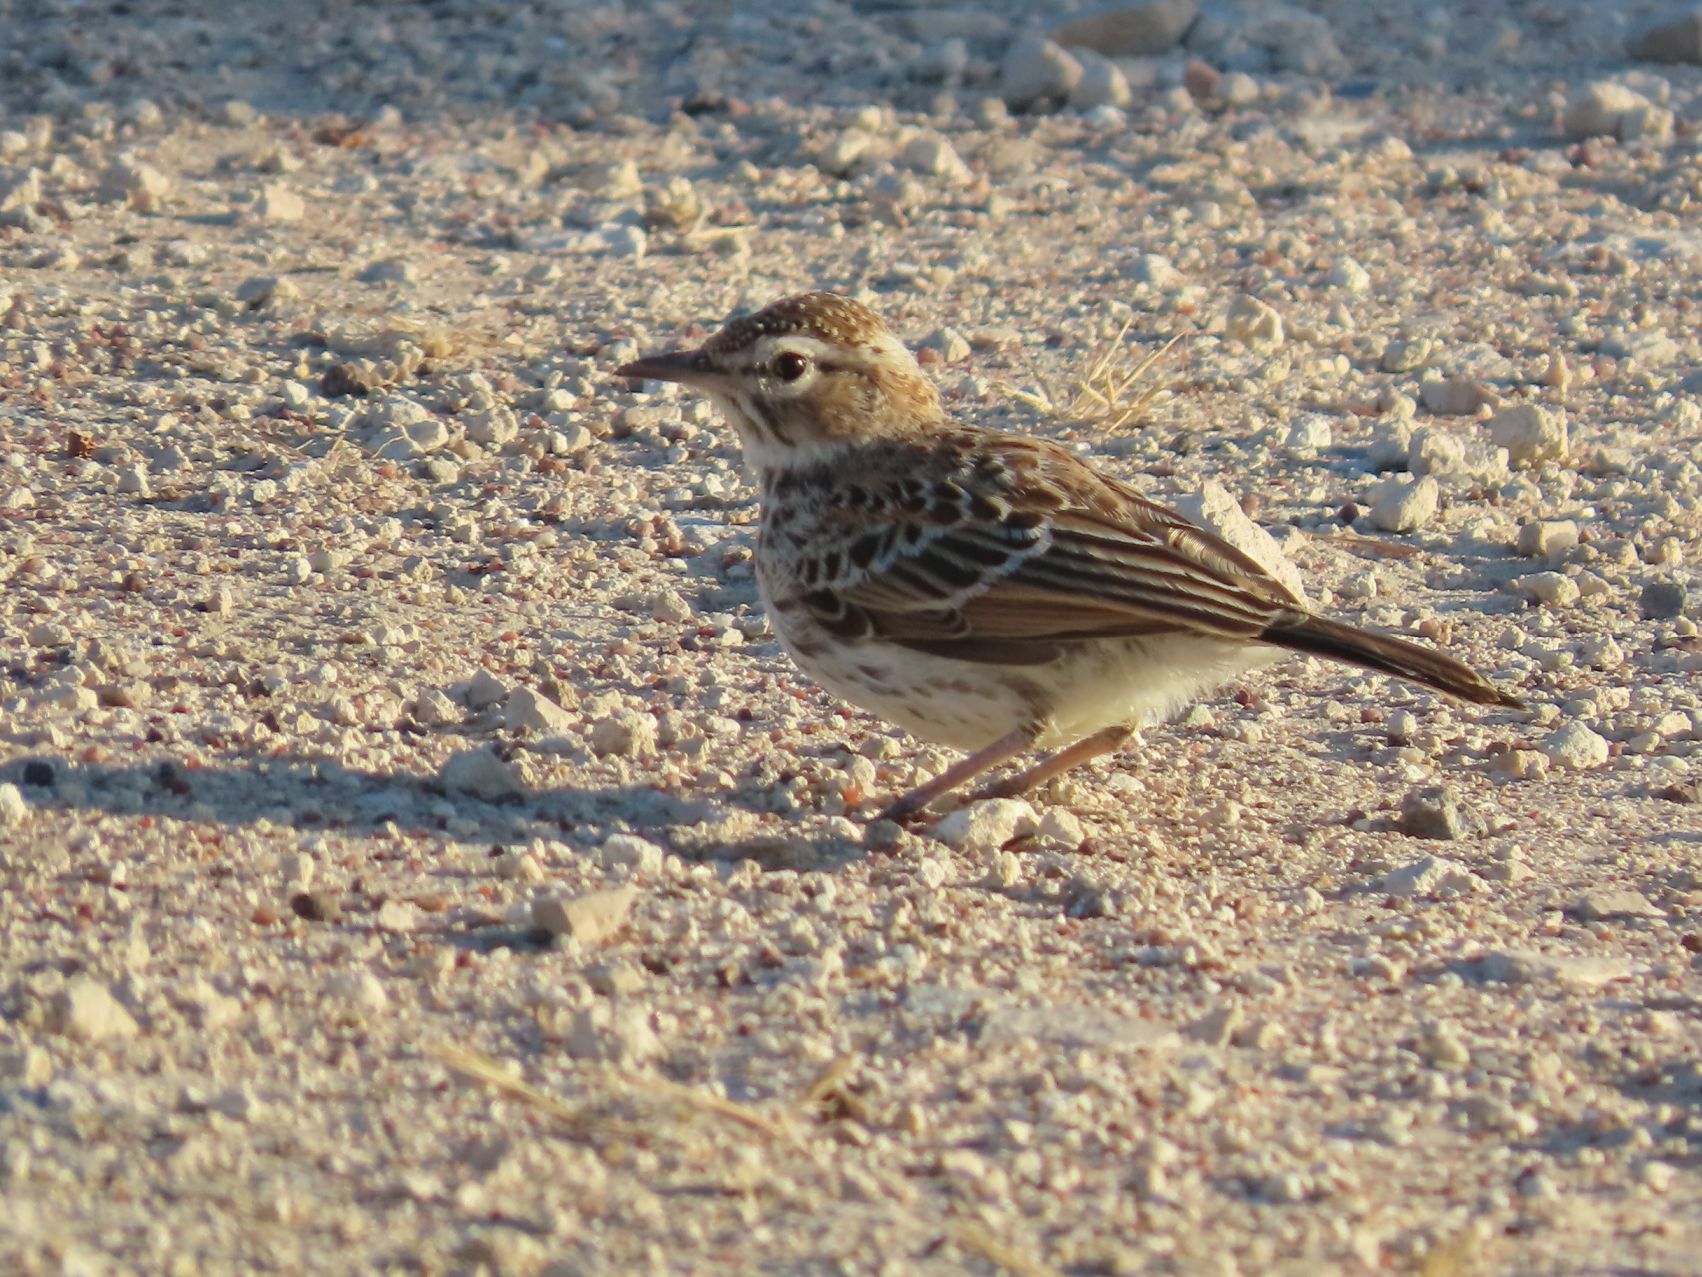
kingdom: Animalia
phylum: Chordata
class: Aves
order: Passeriformes
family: Alaudidae
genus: Calendulauda
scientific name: Calendulauda albescens
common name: Karoo lark
